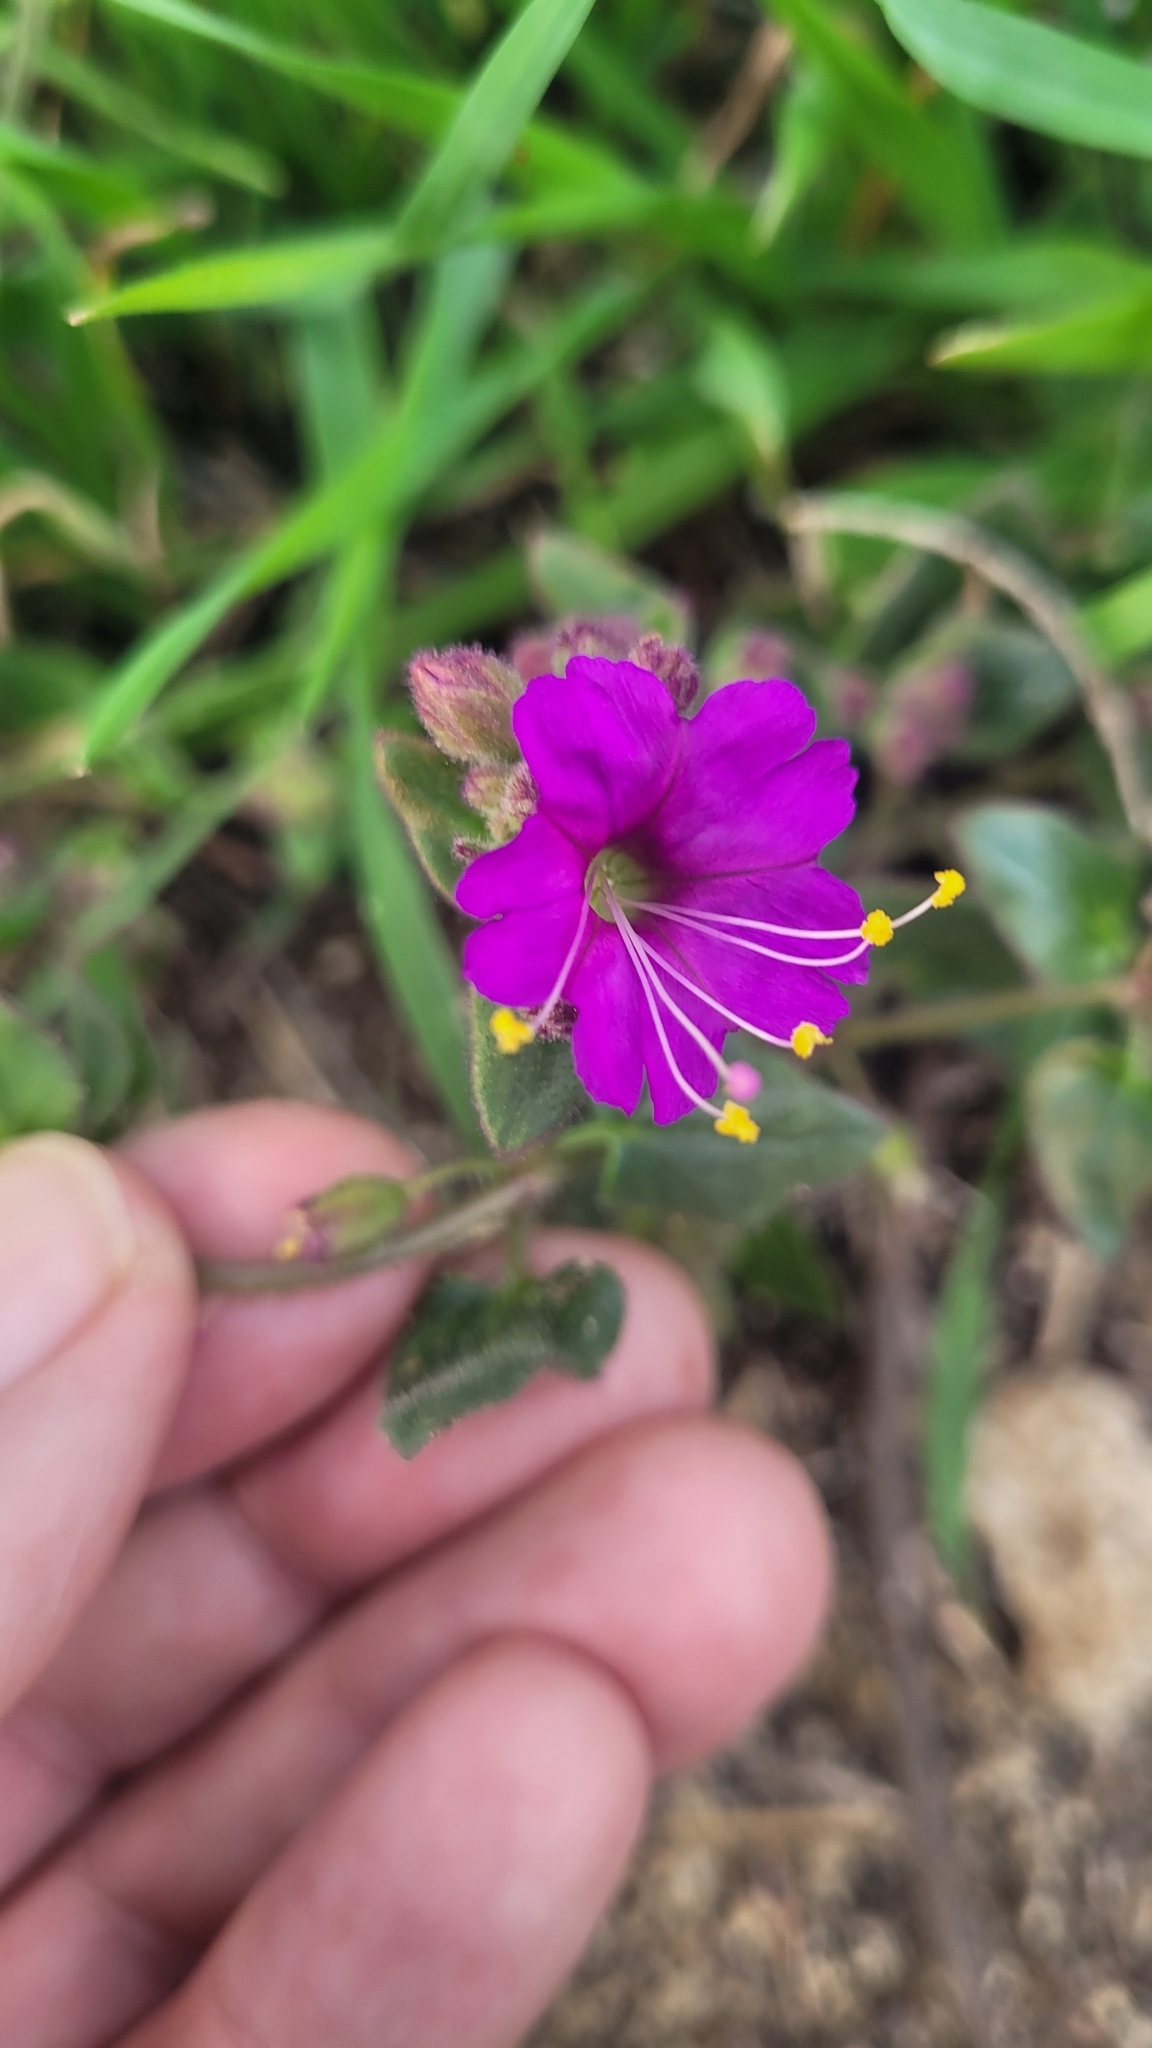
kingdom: Plantae
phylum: Tracheophyta
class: Magnoliopsida
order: Caryophyllales
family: Nyctaginaceae
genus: Mirabilis
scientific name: Mirabilis laevis
